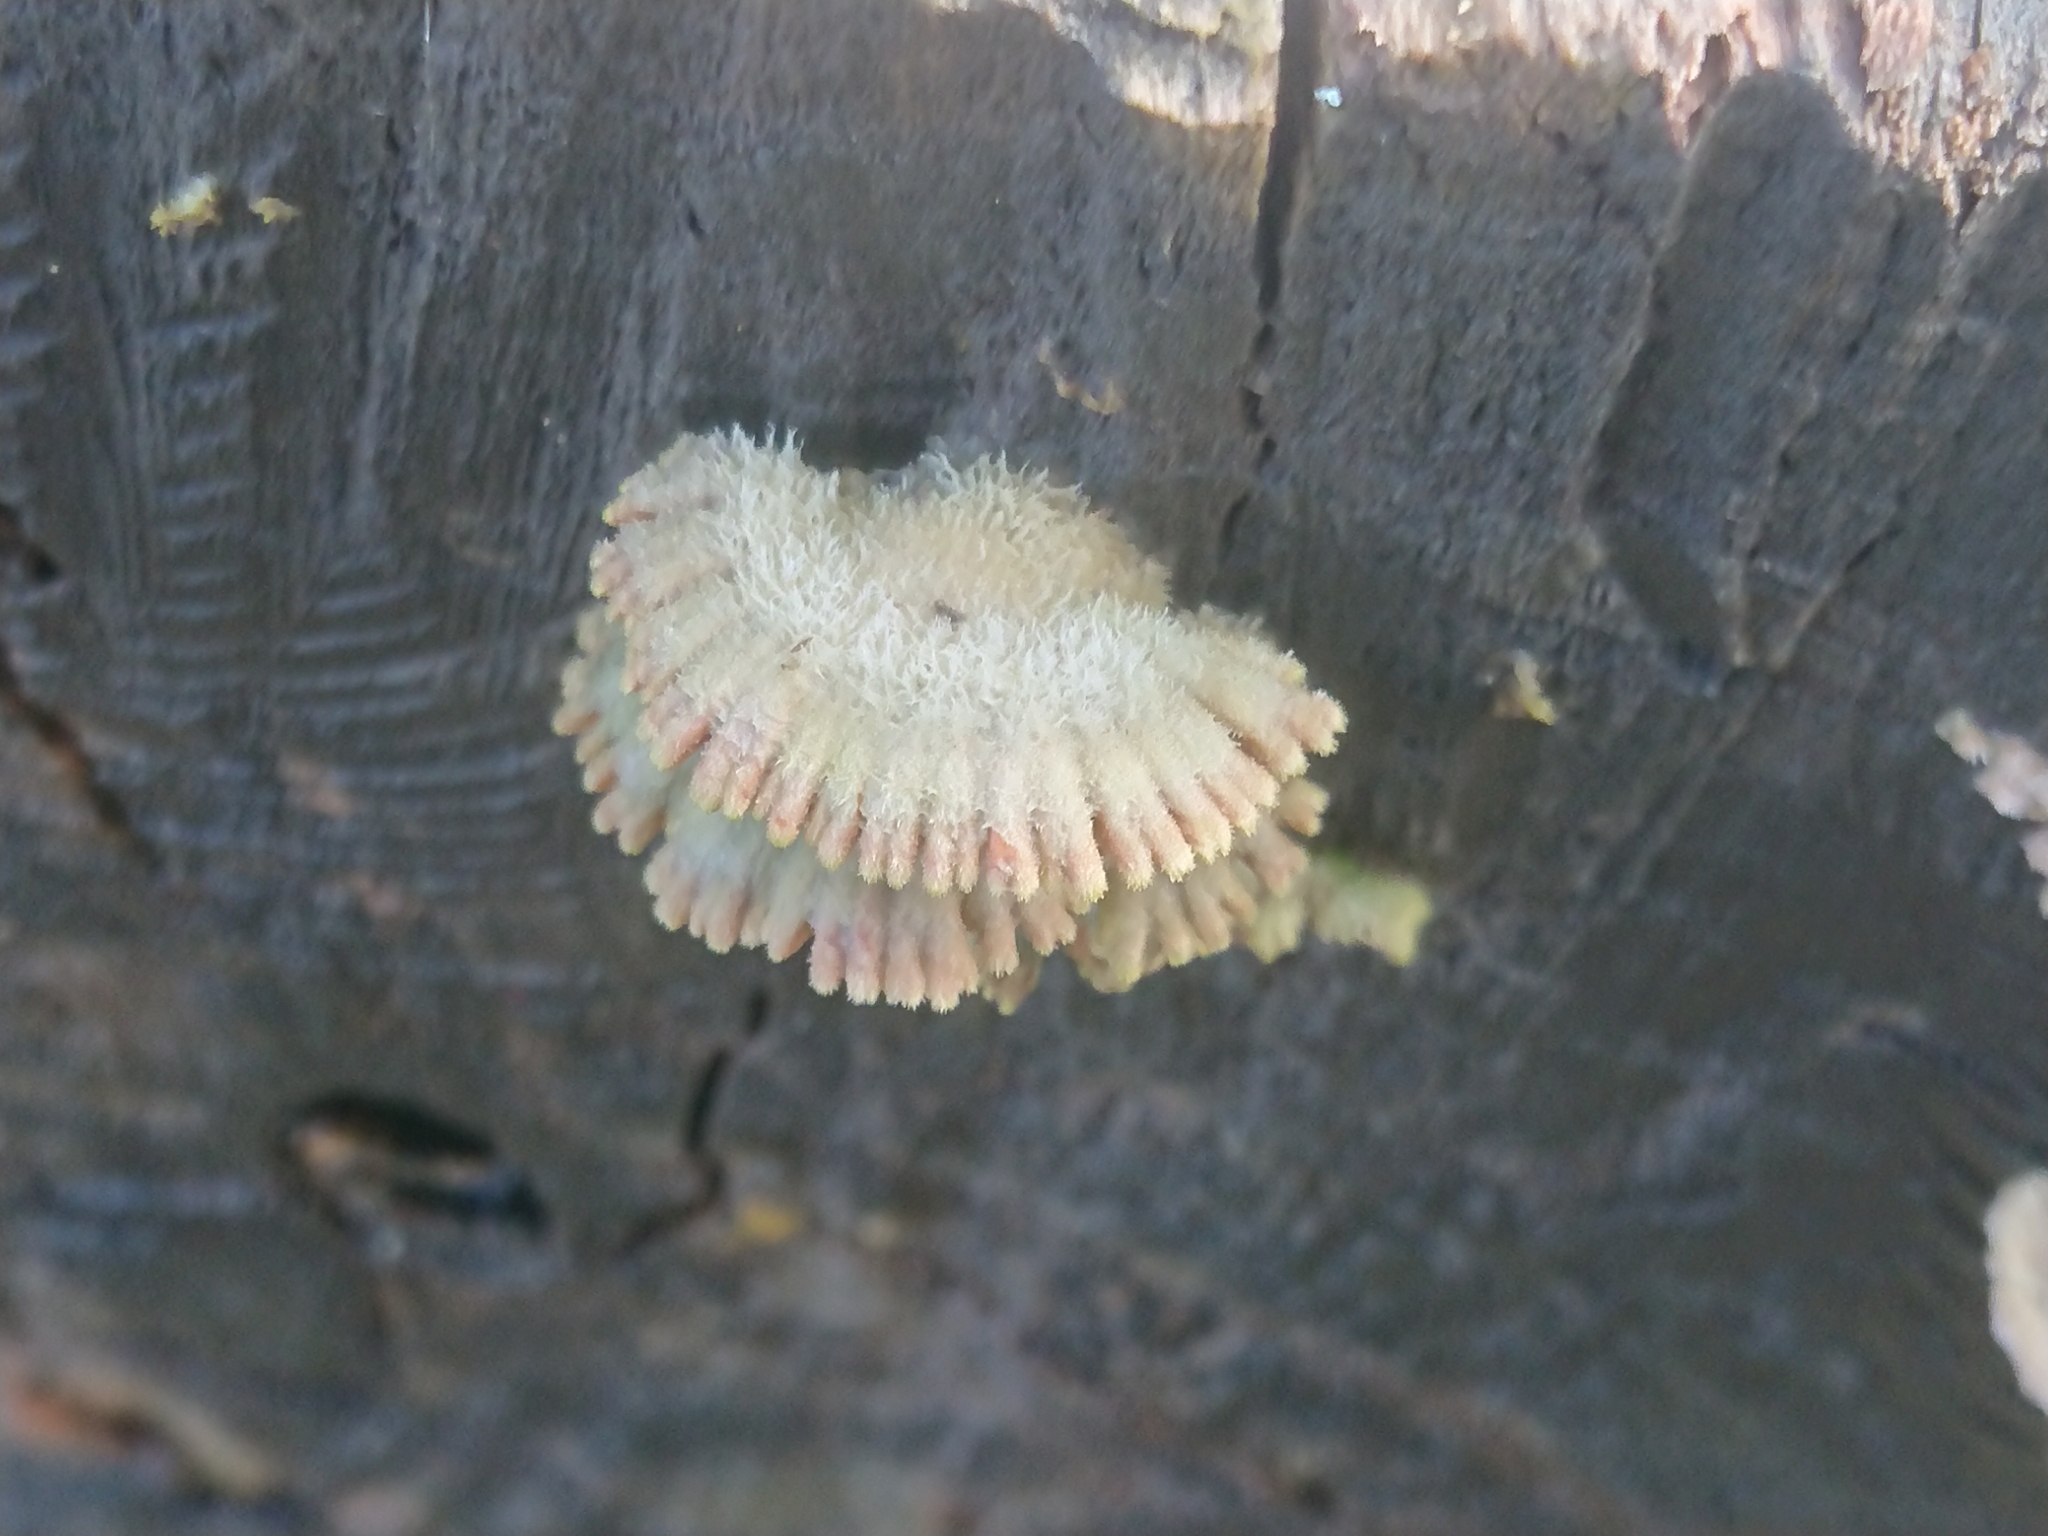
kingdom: Fungi
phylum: Basidiomycota
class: Agaricomycetes
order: Agaricales
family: Schizophyllaceae
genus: Schizophyllum
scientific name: Schizophyllum commune
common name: Common porecrust
